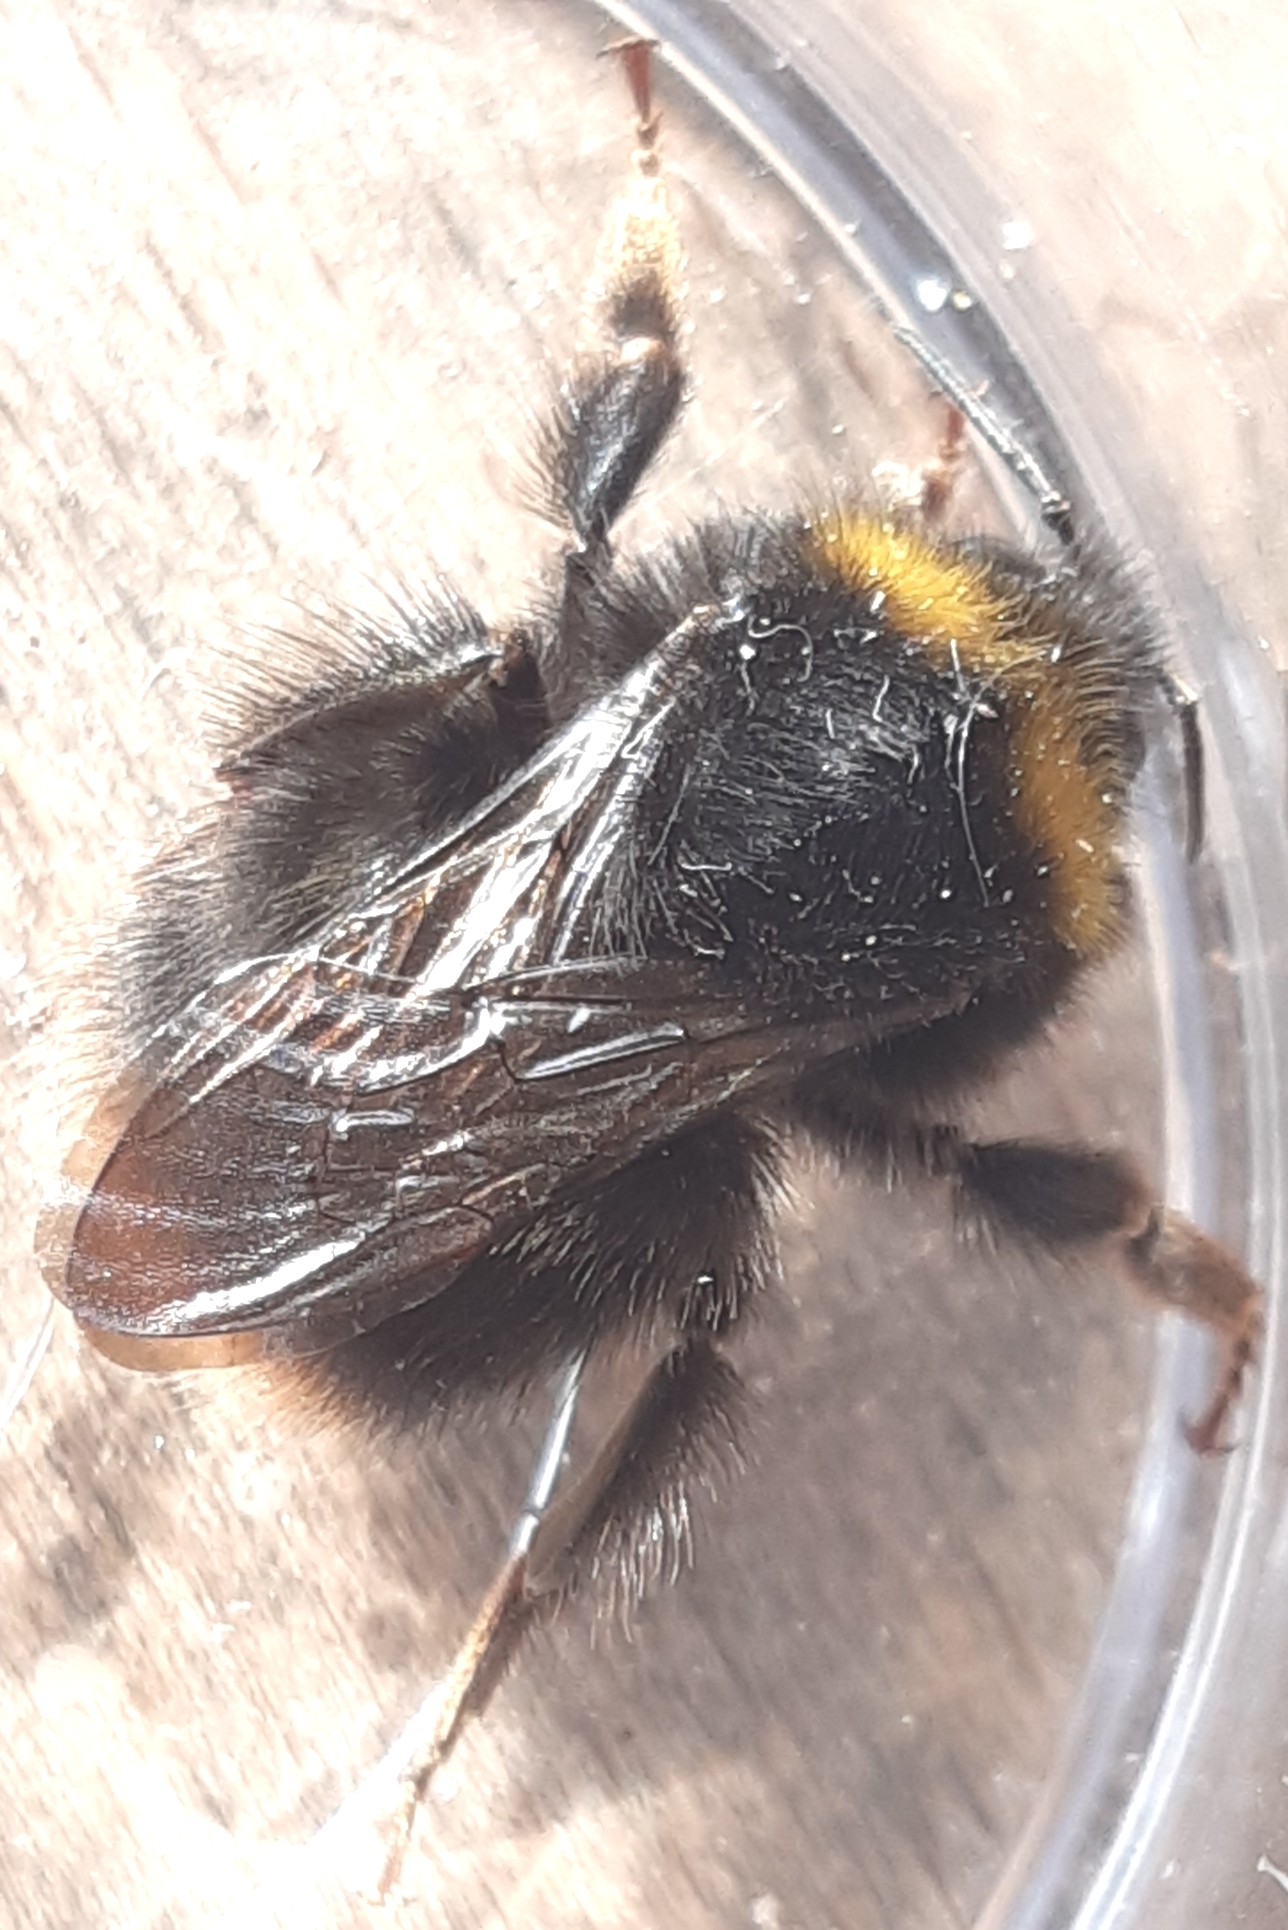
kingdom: Animalia
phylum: Arthropoda
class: Insecta
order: Hymenoptera
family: Apidae
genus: Bombus
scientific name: Bombus pratorum
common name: Early humble-bee
